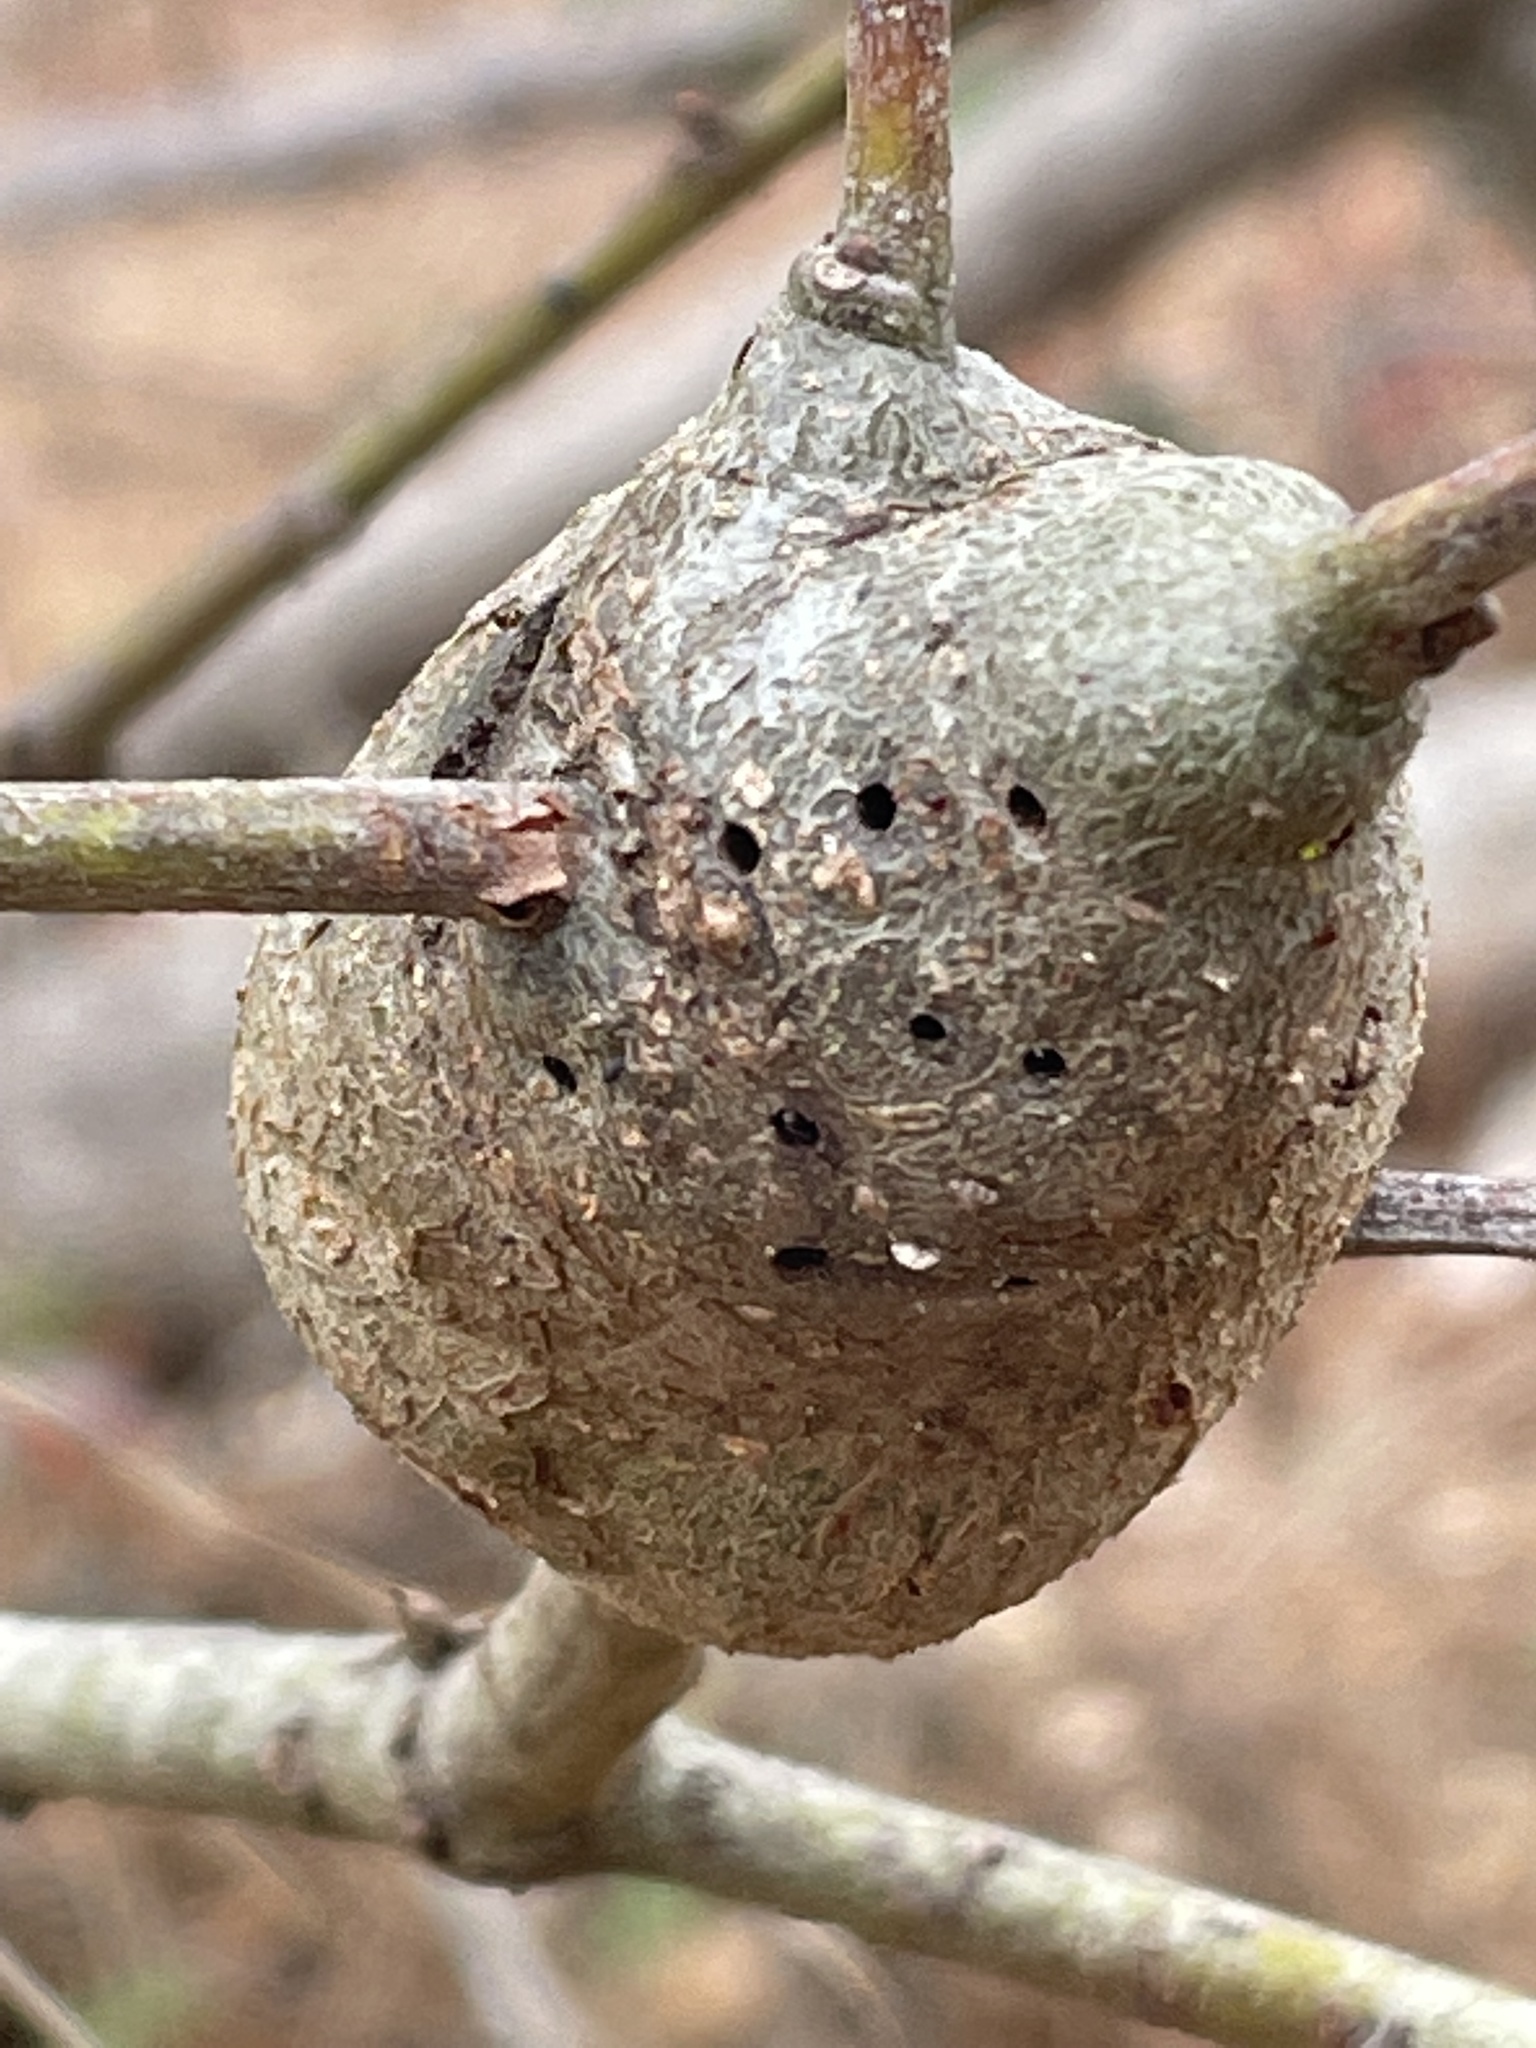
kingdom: Animalia
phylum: Arthropoda
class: Insecta
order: Hymenoptera
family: Cynipidae
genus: Callirhytis
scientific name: Callirhytis
